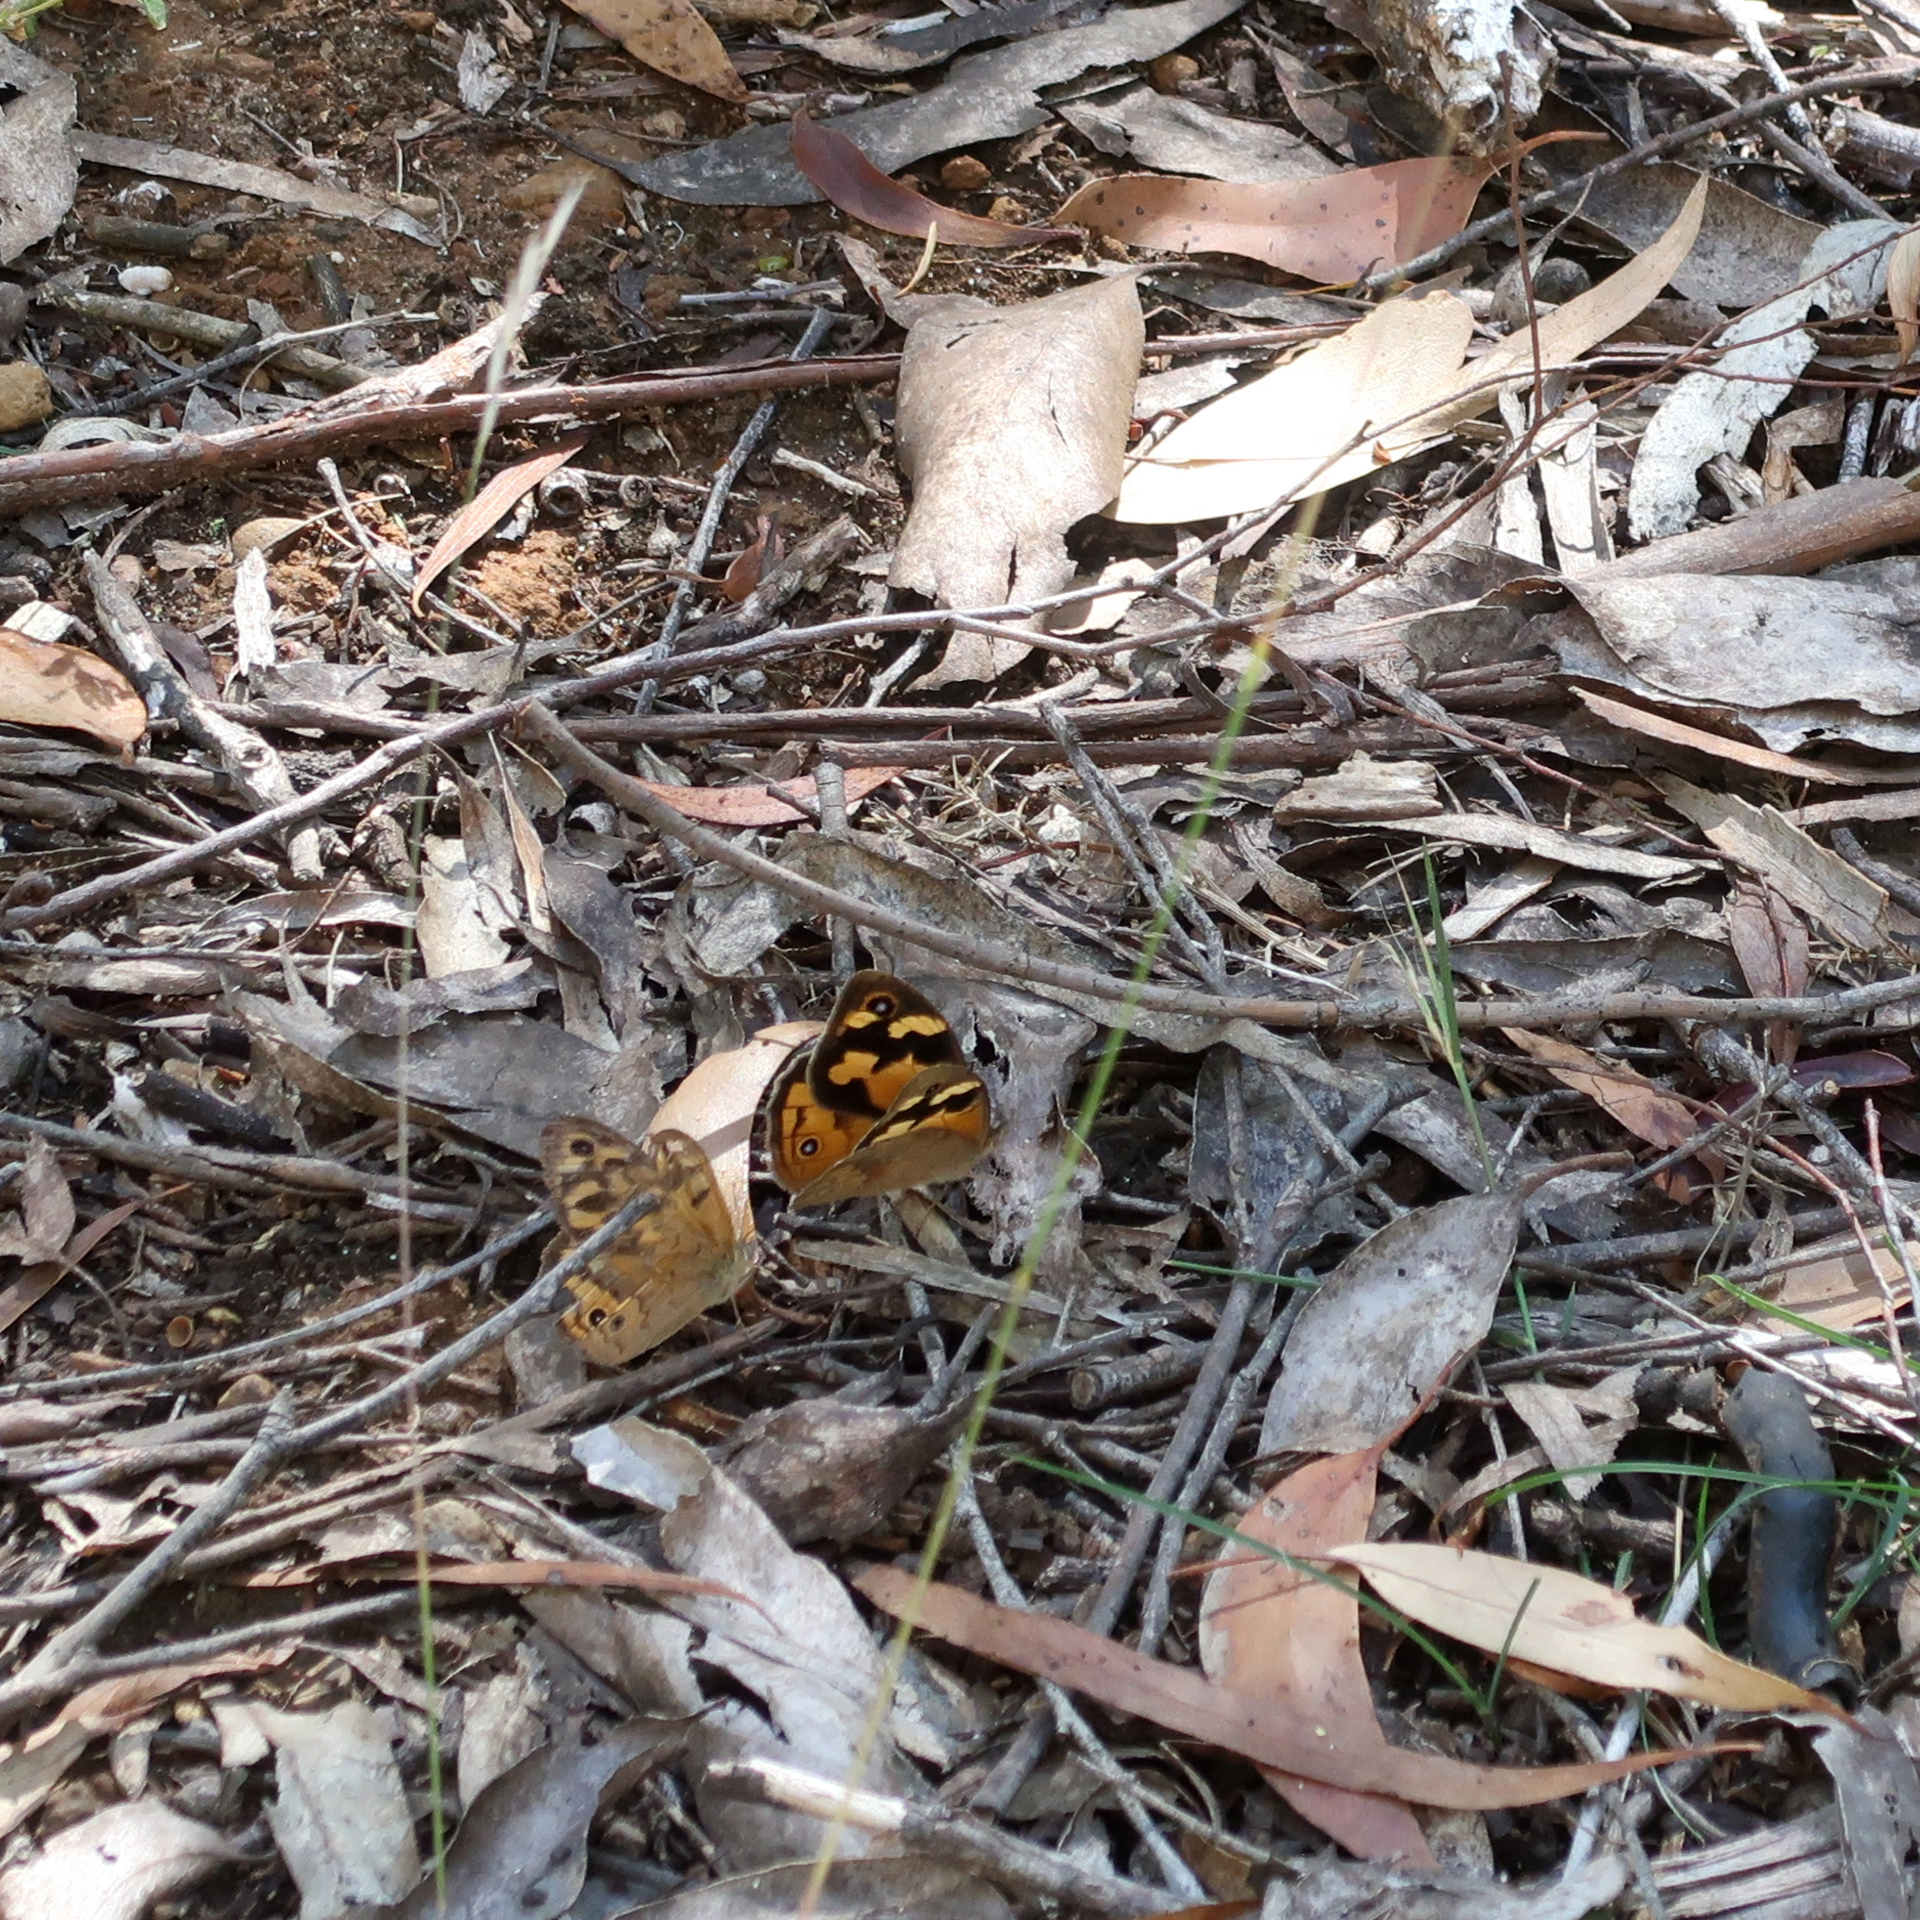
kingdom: Animalia
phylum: Arthropoda
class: Insecta
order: Lepidoptera
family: Nymphalidae
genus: Heteronympha
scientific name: Heteronympha merope
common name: Common brown
